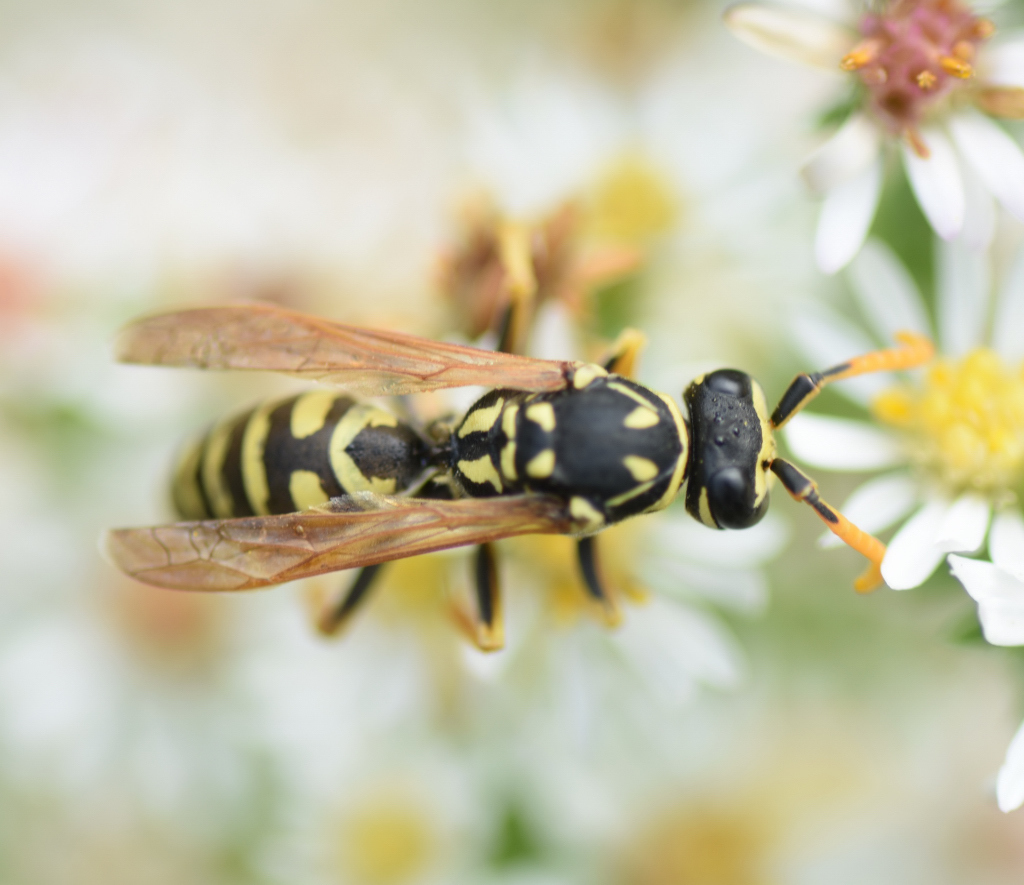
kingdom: Animalia
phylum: Arthropoda
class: Insecta
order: Hymenoptera
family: Eumenidae
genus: Polistes
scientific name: Polistes dominula
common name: Paper wasp
